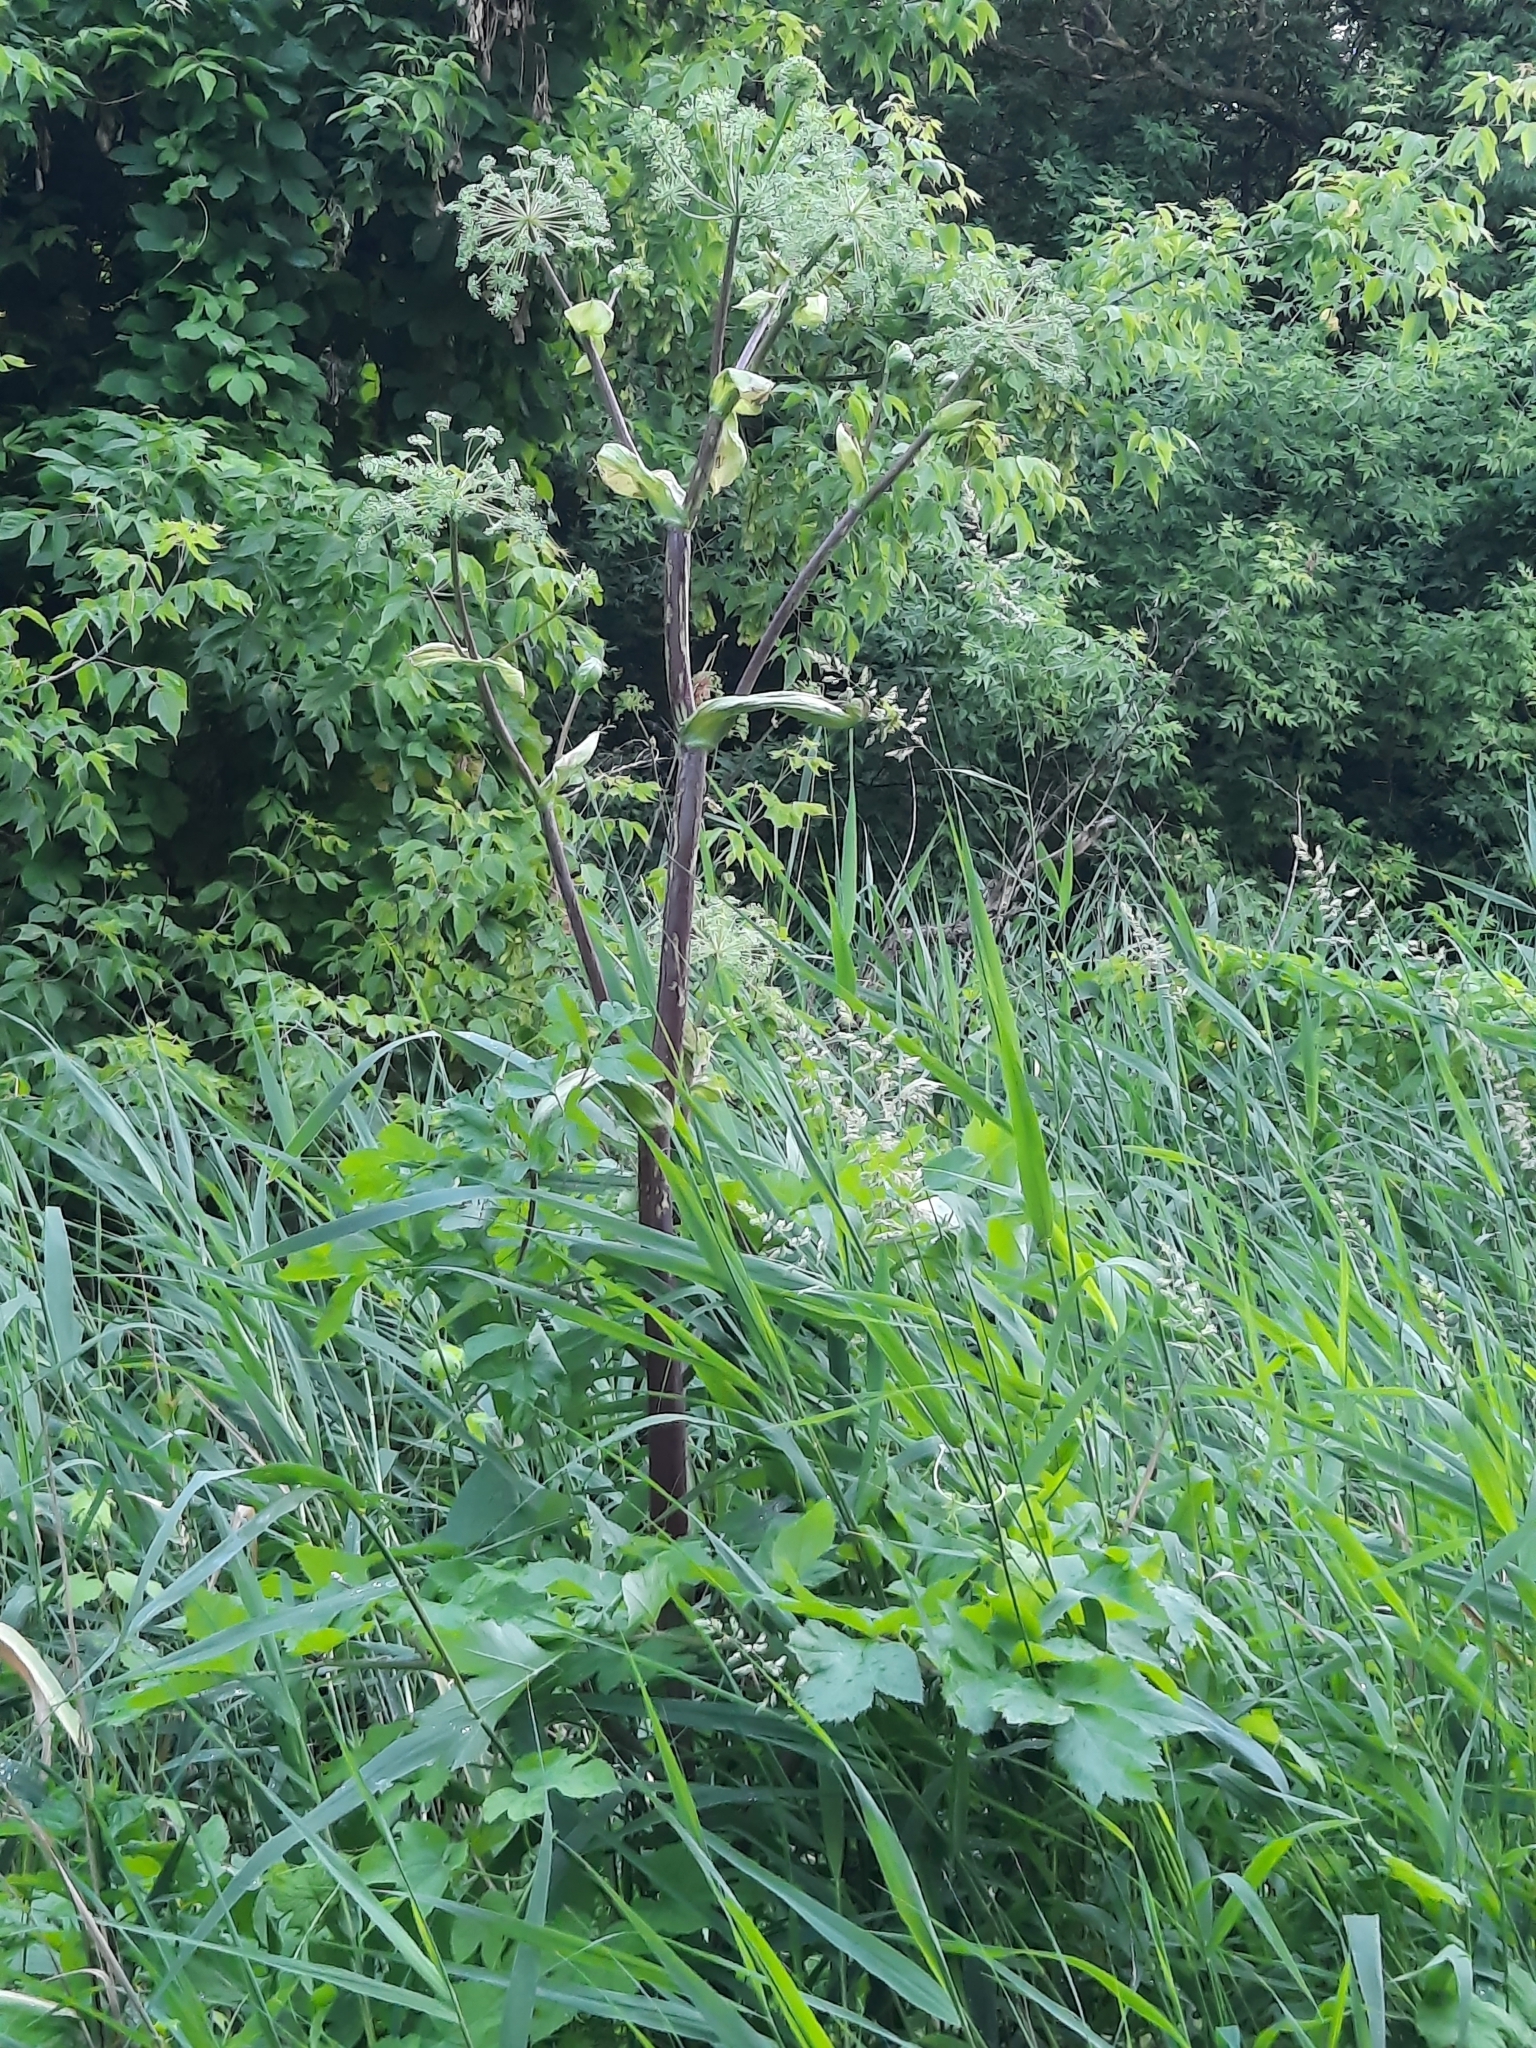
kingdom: Plantae
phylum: Tracheophyta
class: Magnoliopsida
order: Apiales
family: Apiaceae
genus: Angelica
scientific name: Angelica archangelica
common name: Garden angelica
